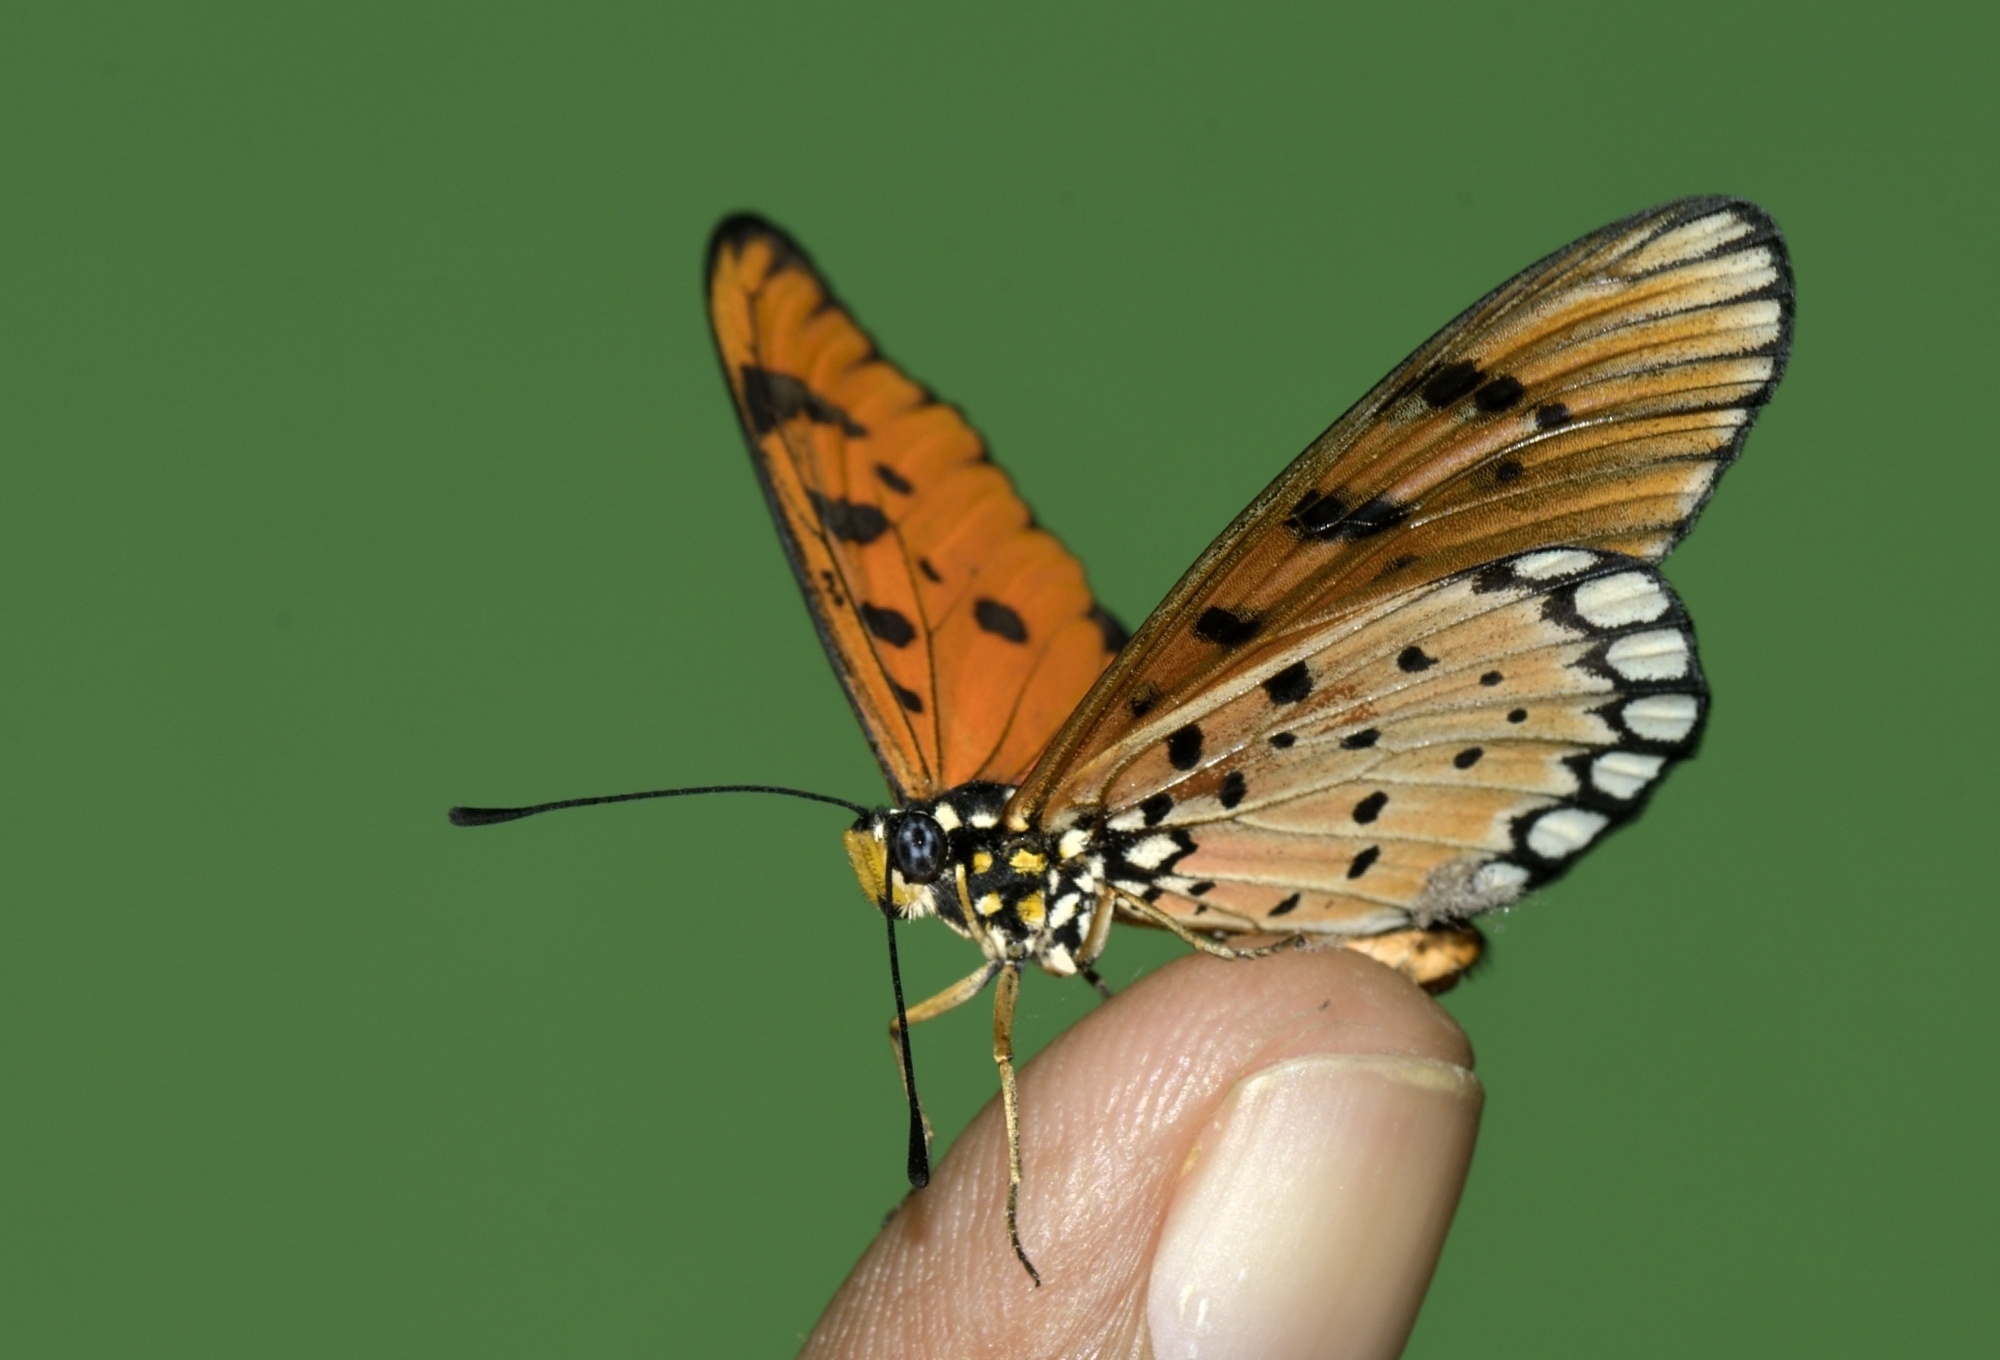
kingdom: Animalia
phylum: Arthropoda
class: Insecta
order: Lepidoptera
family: Nymphalidae
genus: Acraea
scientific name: Acraea terpsicore
